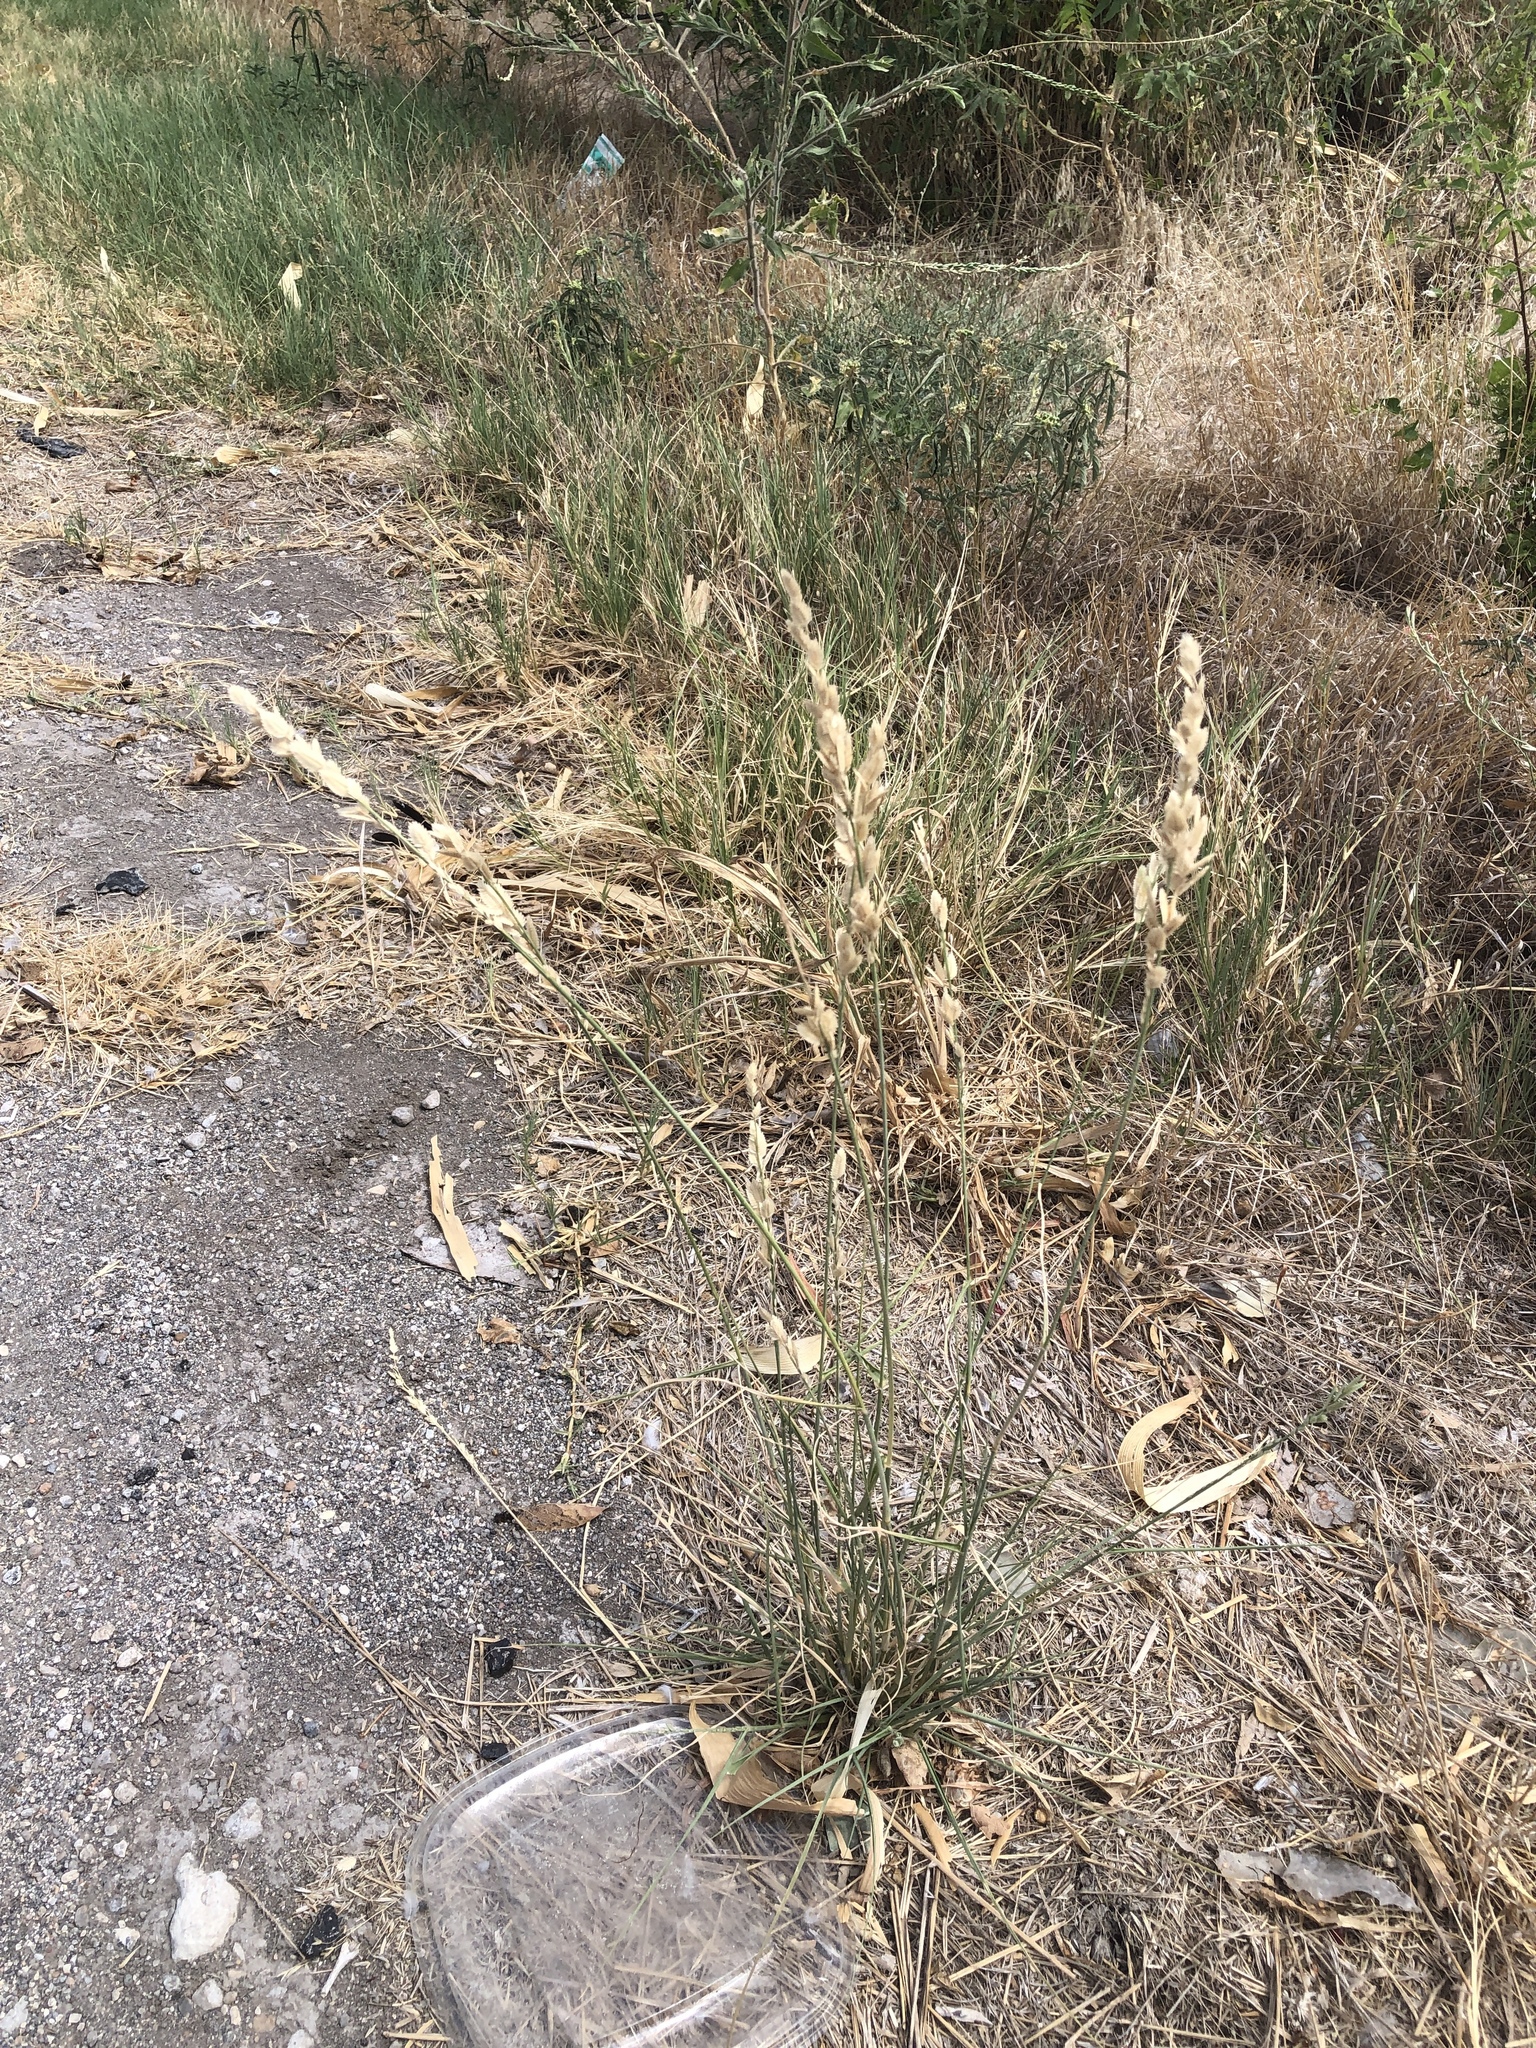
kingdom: Plantae
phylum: Tracheophyta
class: Liliopsida
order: Poales
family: Poaceae
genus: Eragrostis
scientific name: Eragrostis superba
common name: Wilman lovegrass
